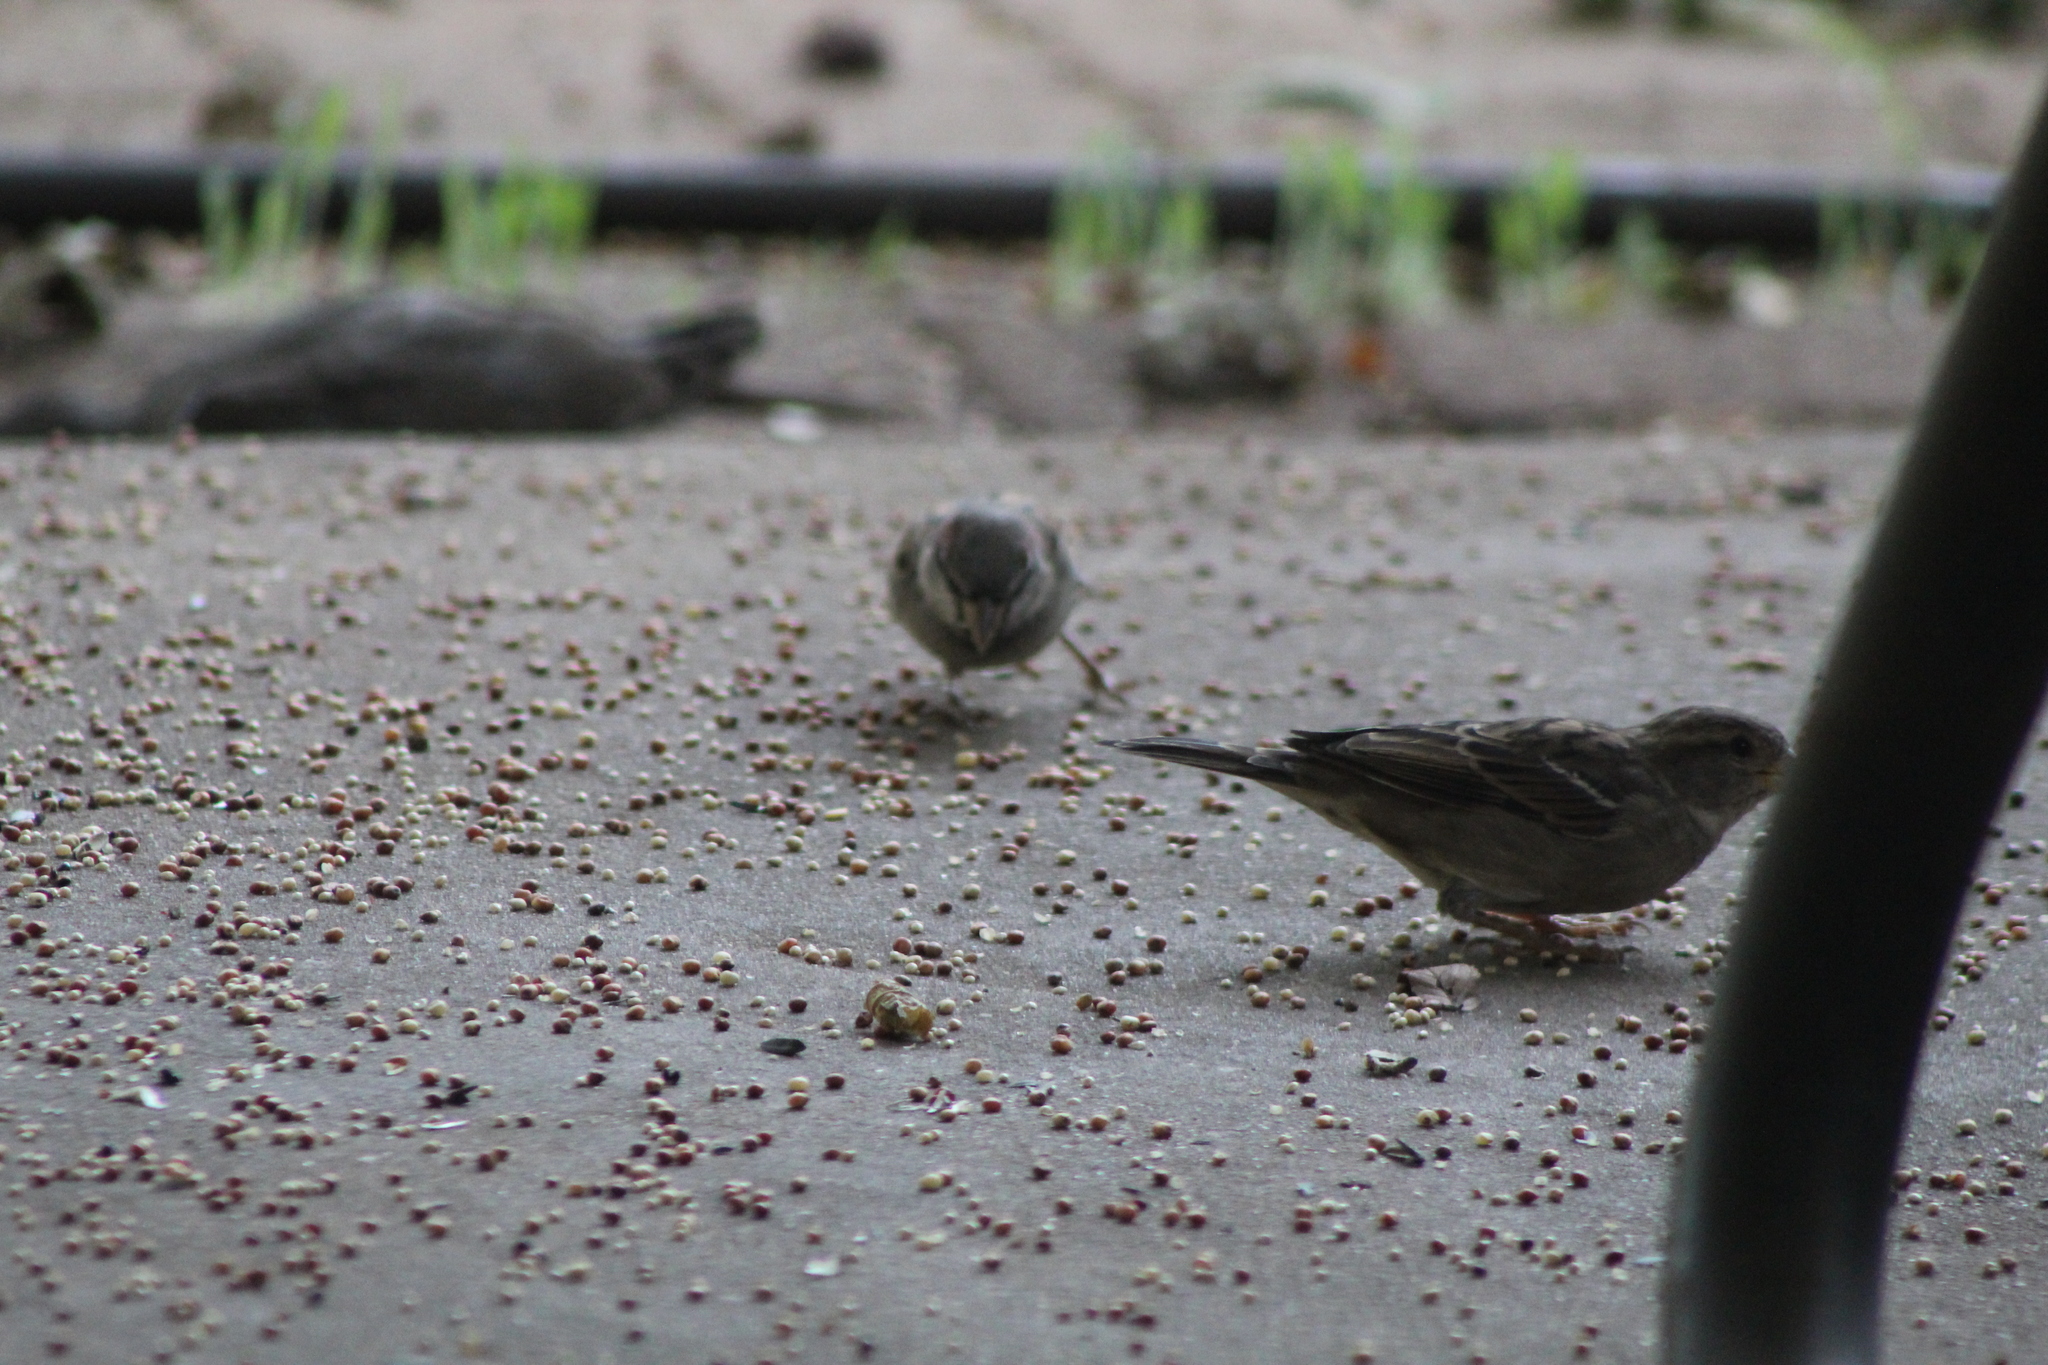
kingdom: Animalia
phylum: Chordata
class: Aves
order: Passeriformes
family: Passeridae
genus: Passer
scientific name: Passer domesticus
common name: House sparrow
